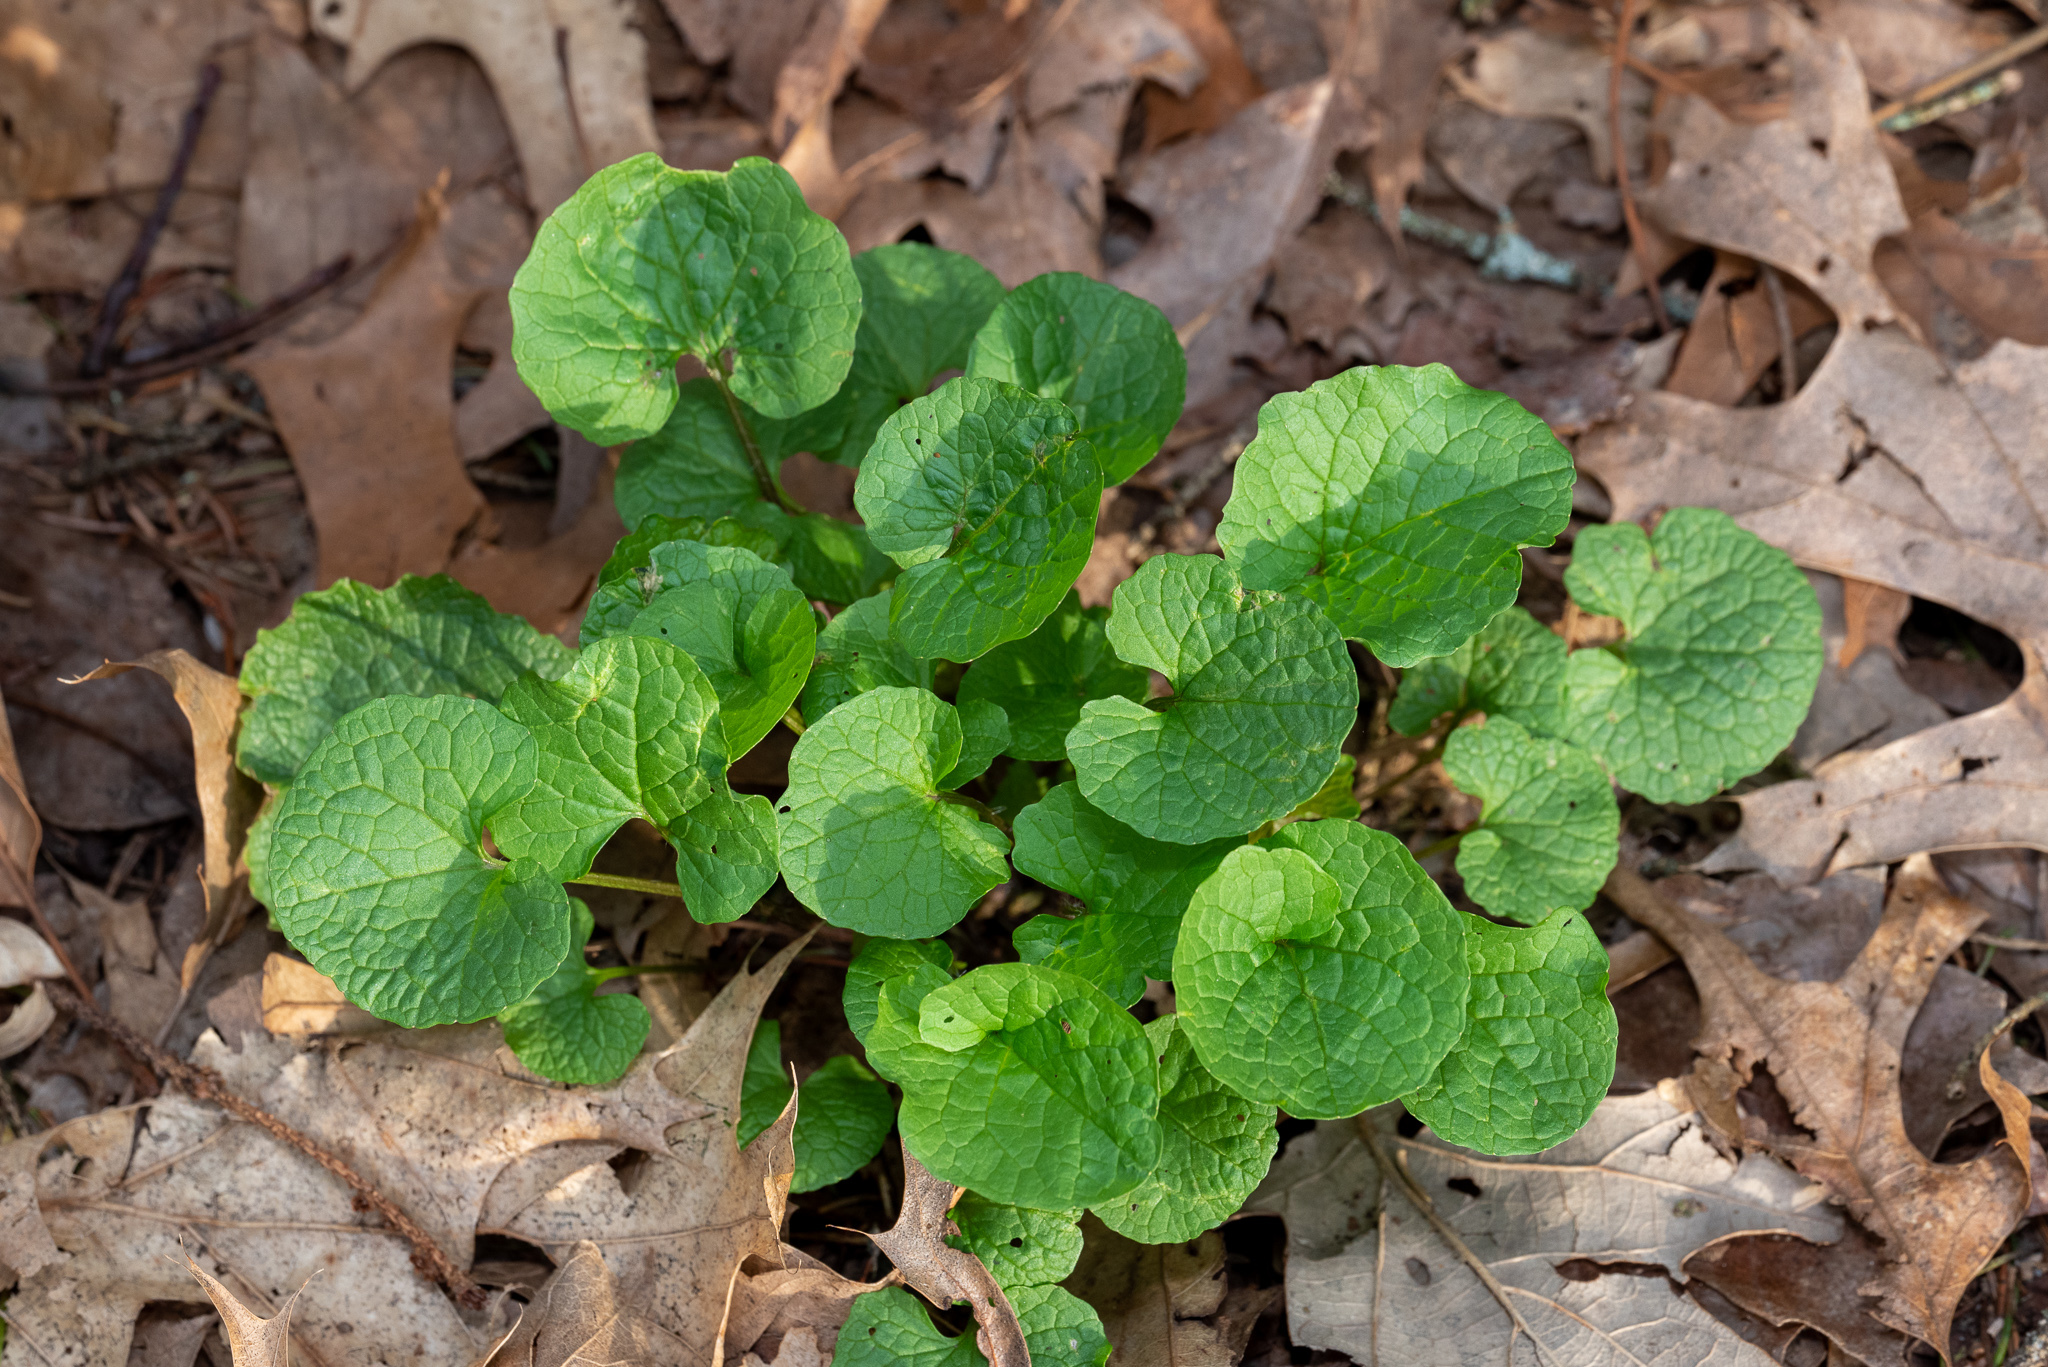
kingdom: Plantae
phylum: Tracheophyta
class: Magnoliopsida
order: Brassicales
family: Brassicaceae
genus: Alliaria
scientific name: Alliaria petiolata
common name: Garlic mustard
